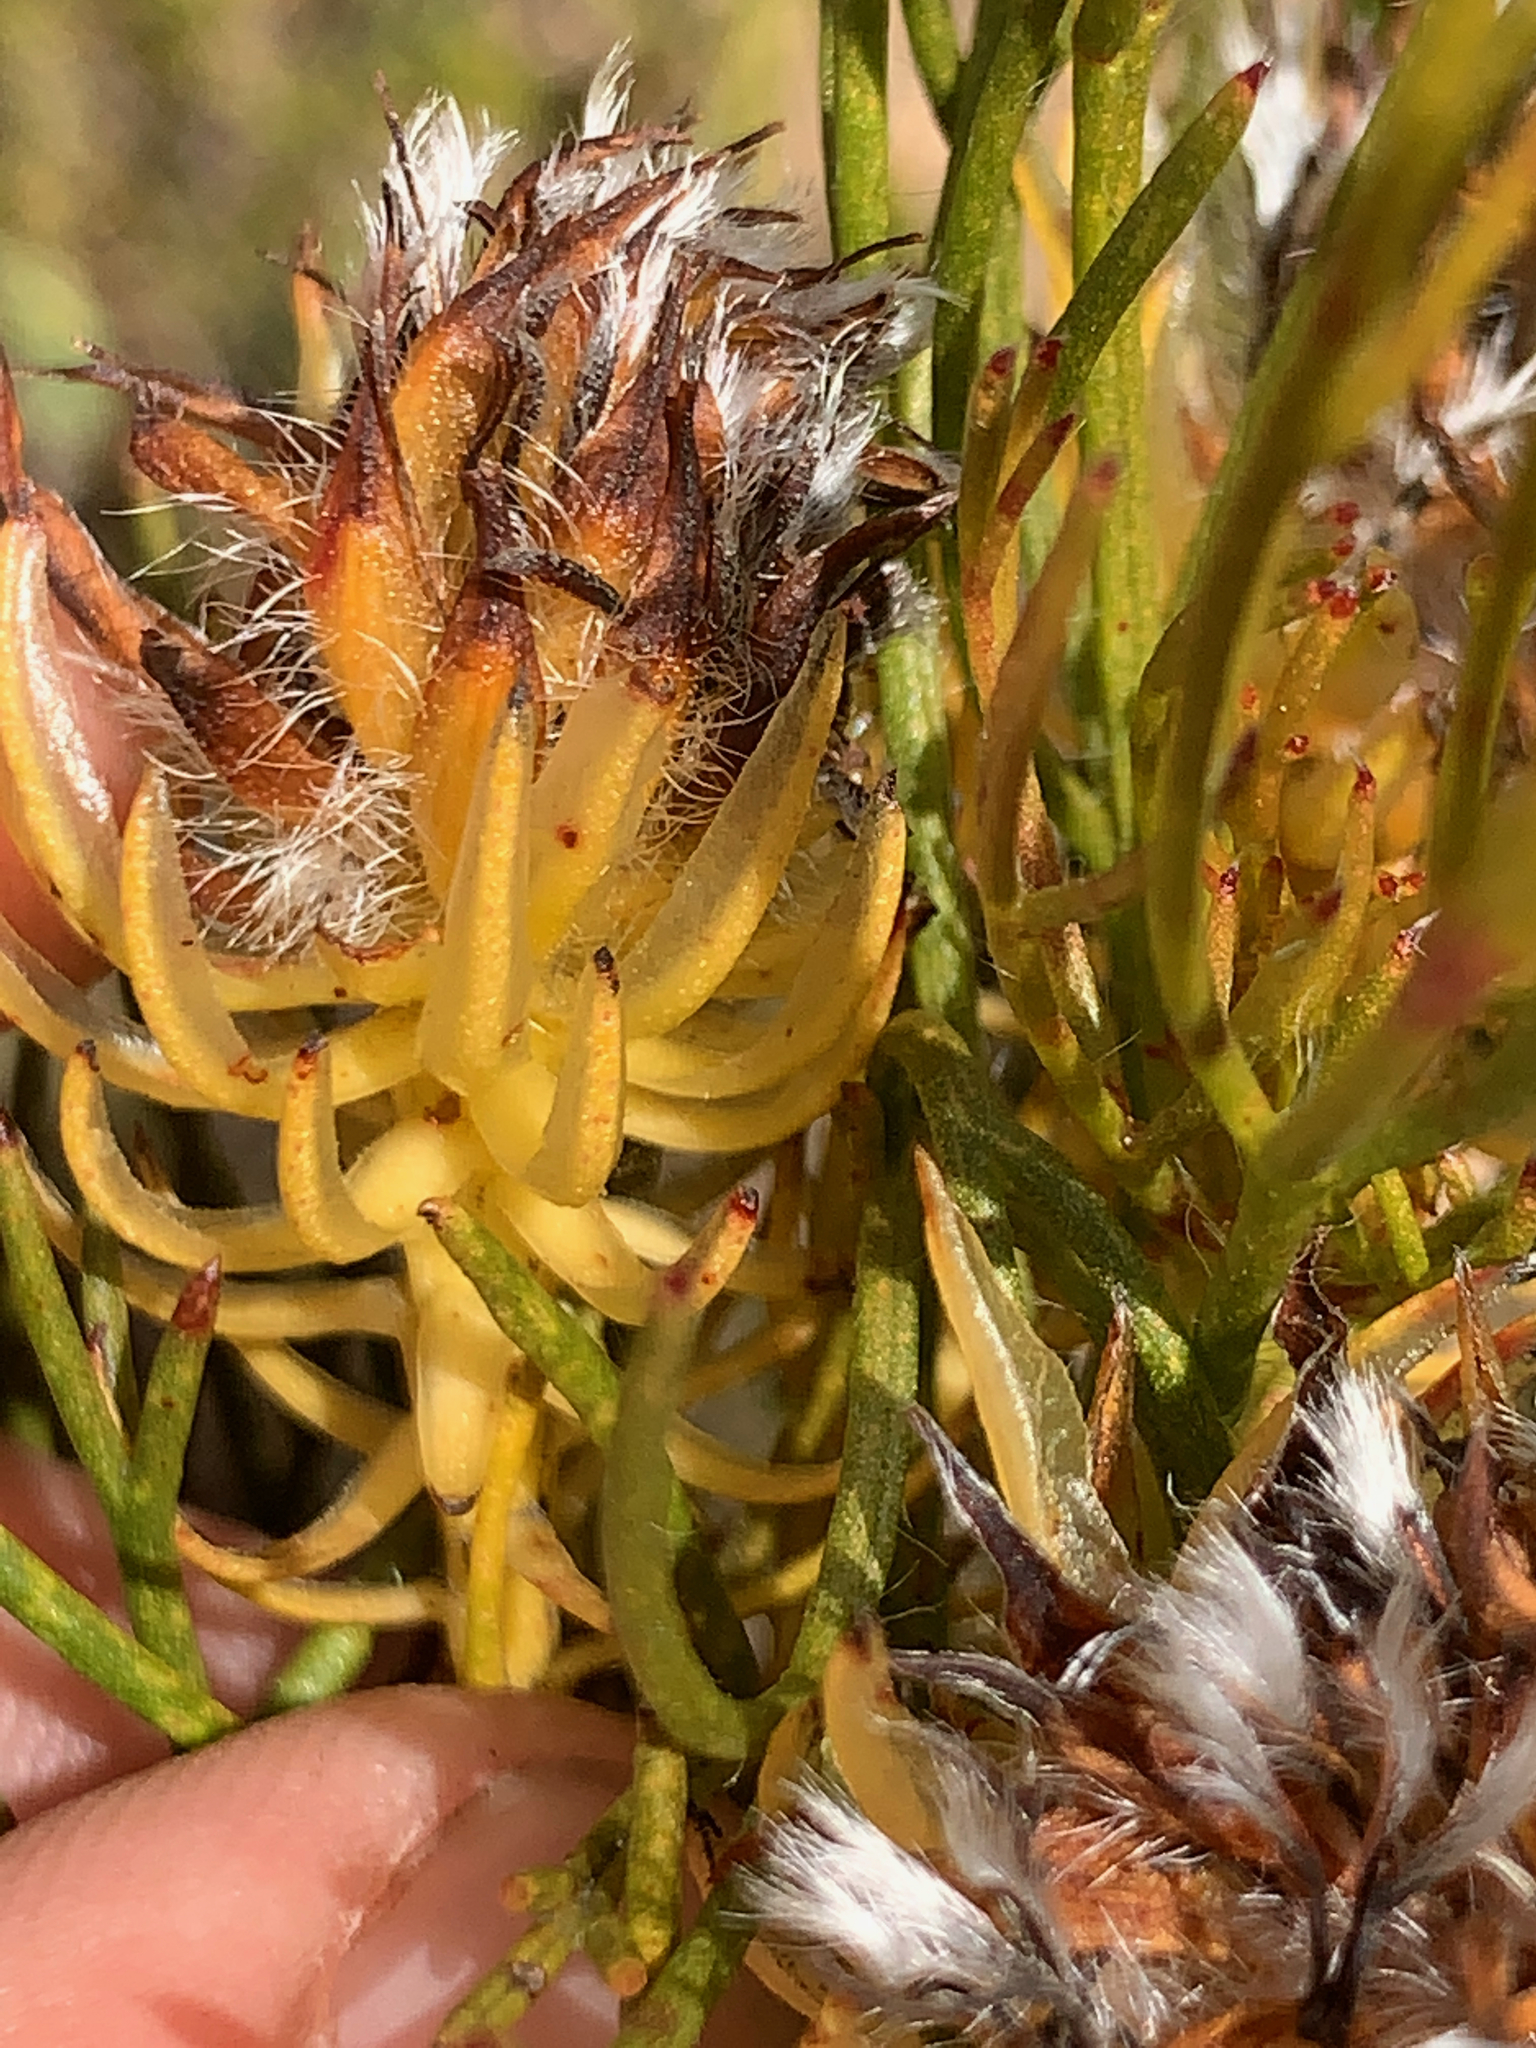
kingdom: Plantae
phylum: Tracheophyta
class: Magnoliopsida
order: Proteales
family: Proteaceae
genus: Serruria
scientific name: Serruria phylicoides
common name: Bearded spiderhead
